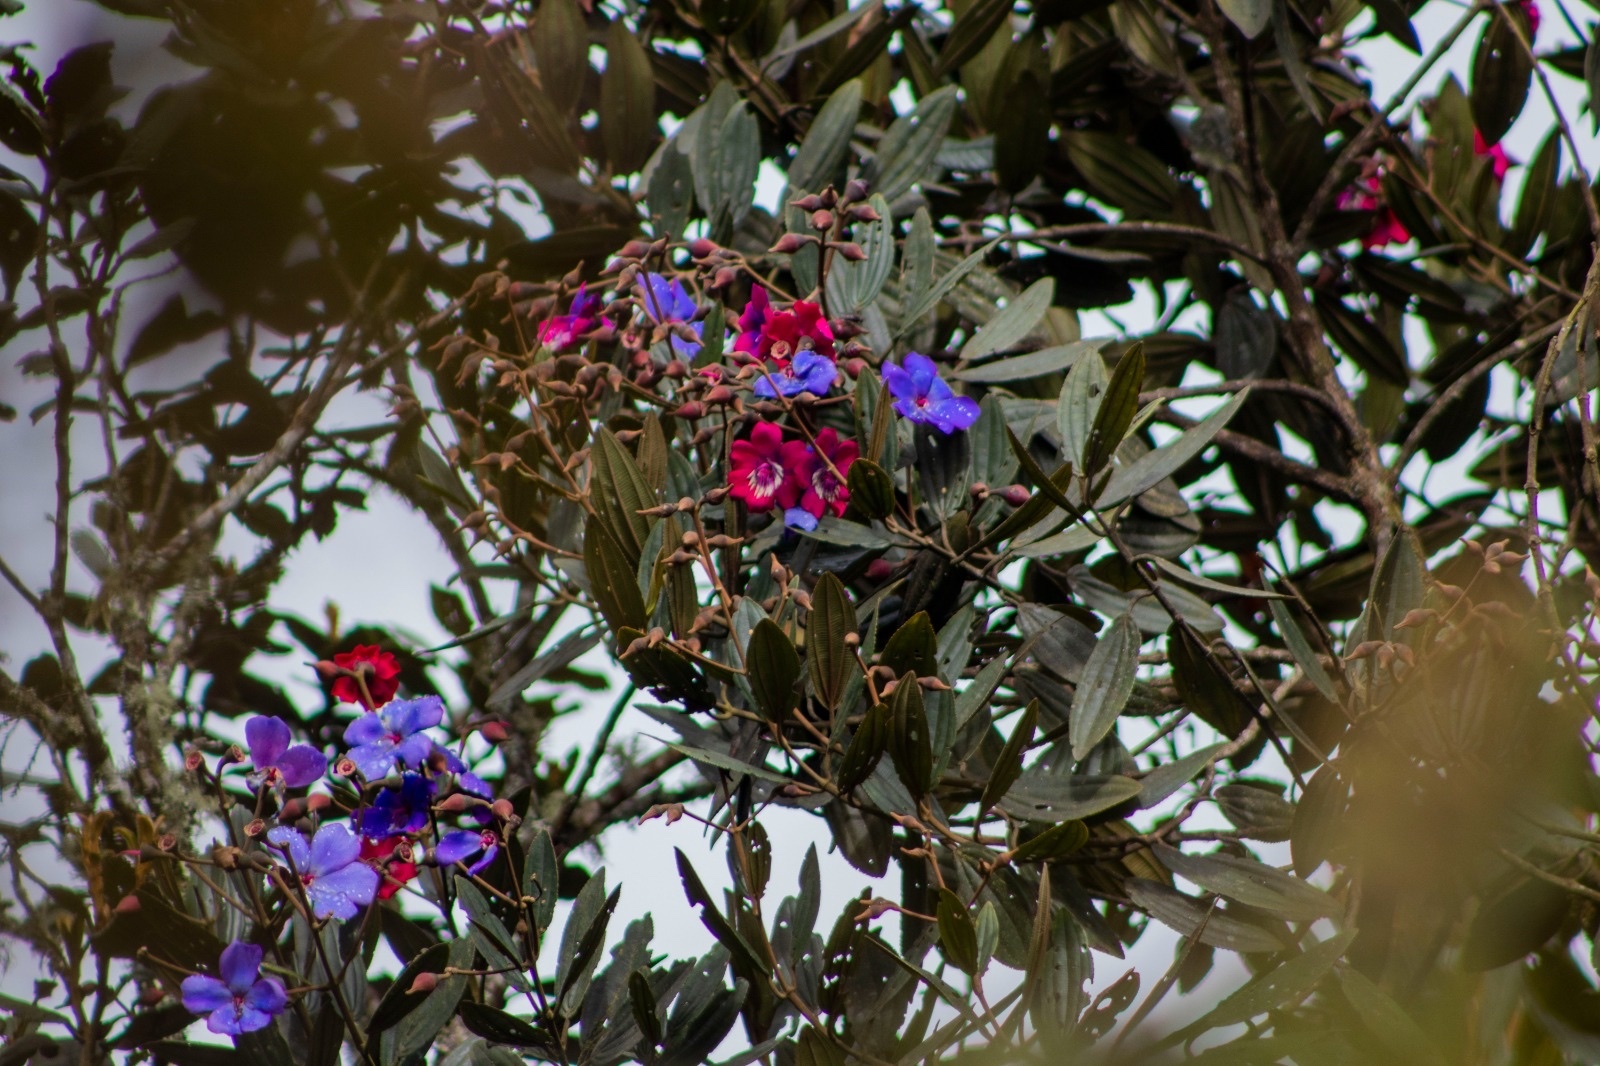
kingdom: Plantae
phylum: Tracheophyta
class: Magnoliopsida
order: Myrtales
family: Melastomataceae
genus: Meriania
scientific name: Meriania brachycera
